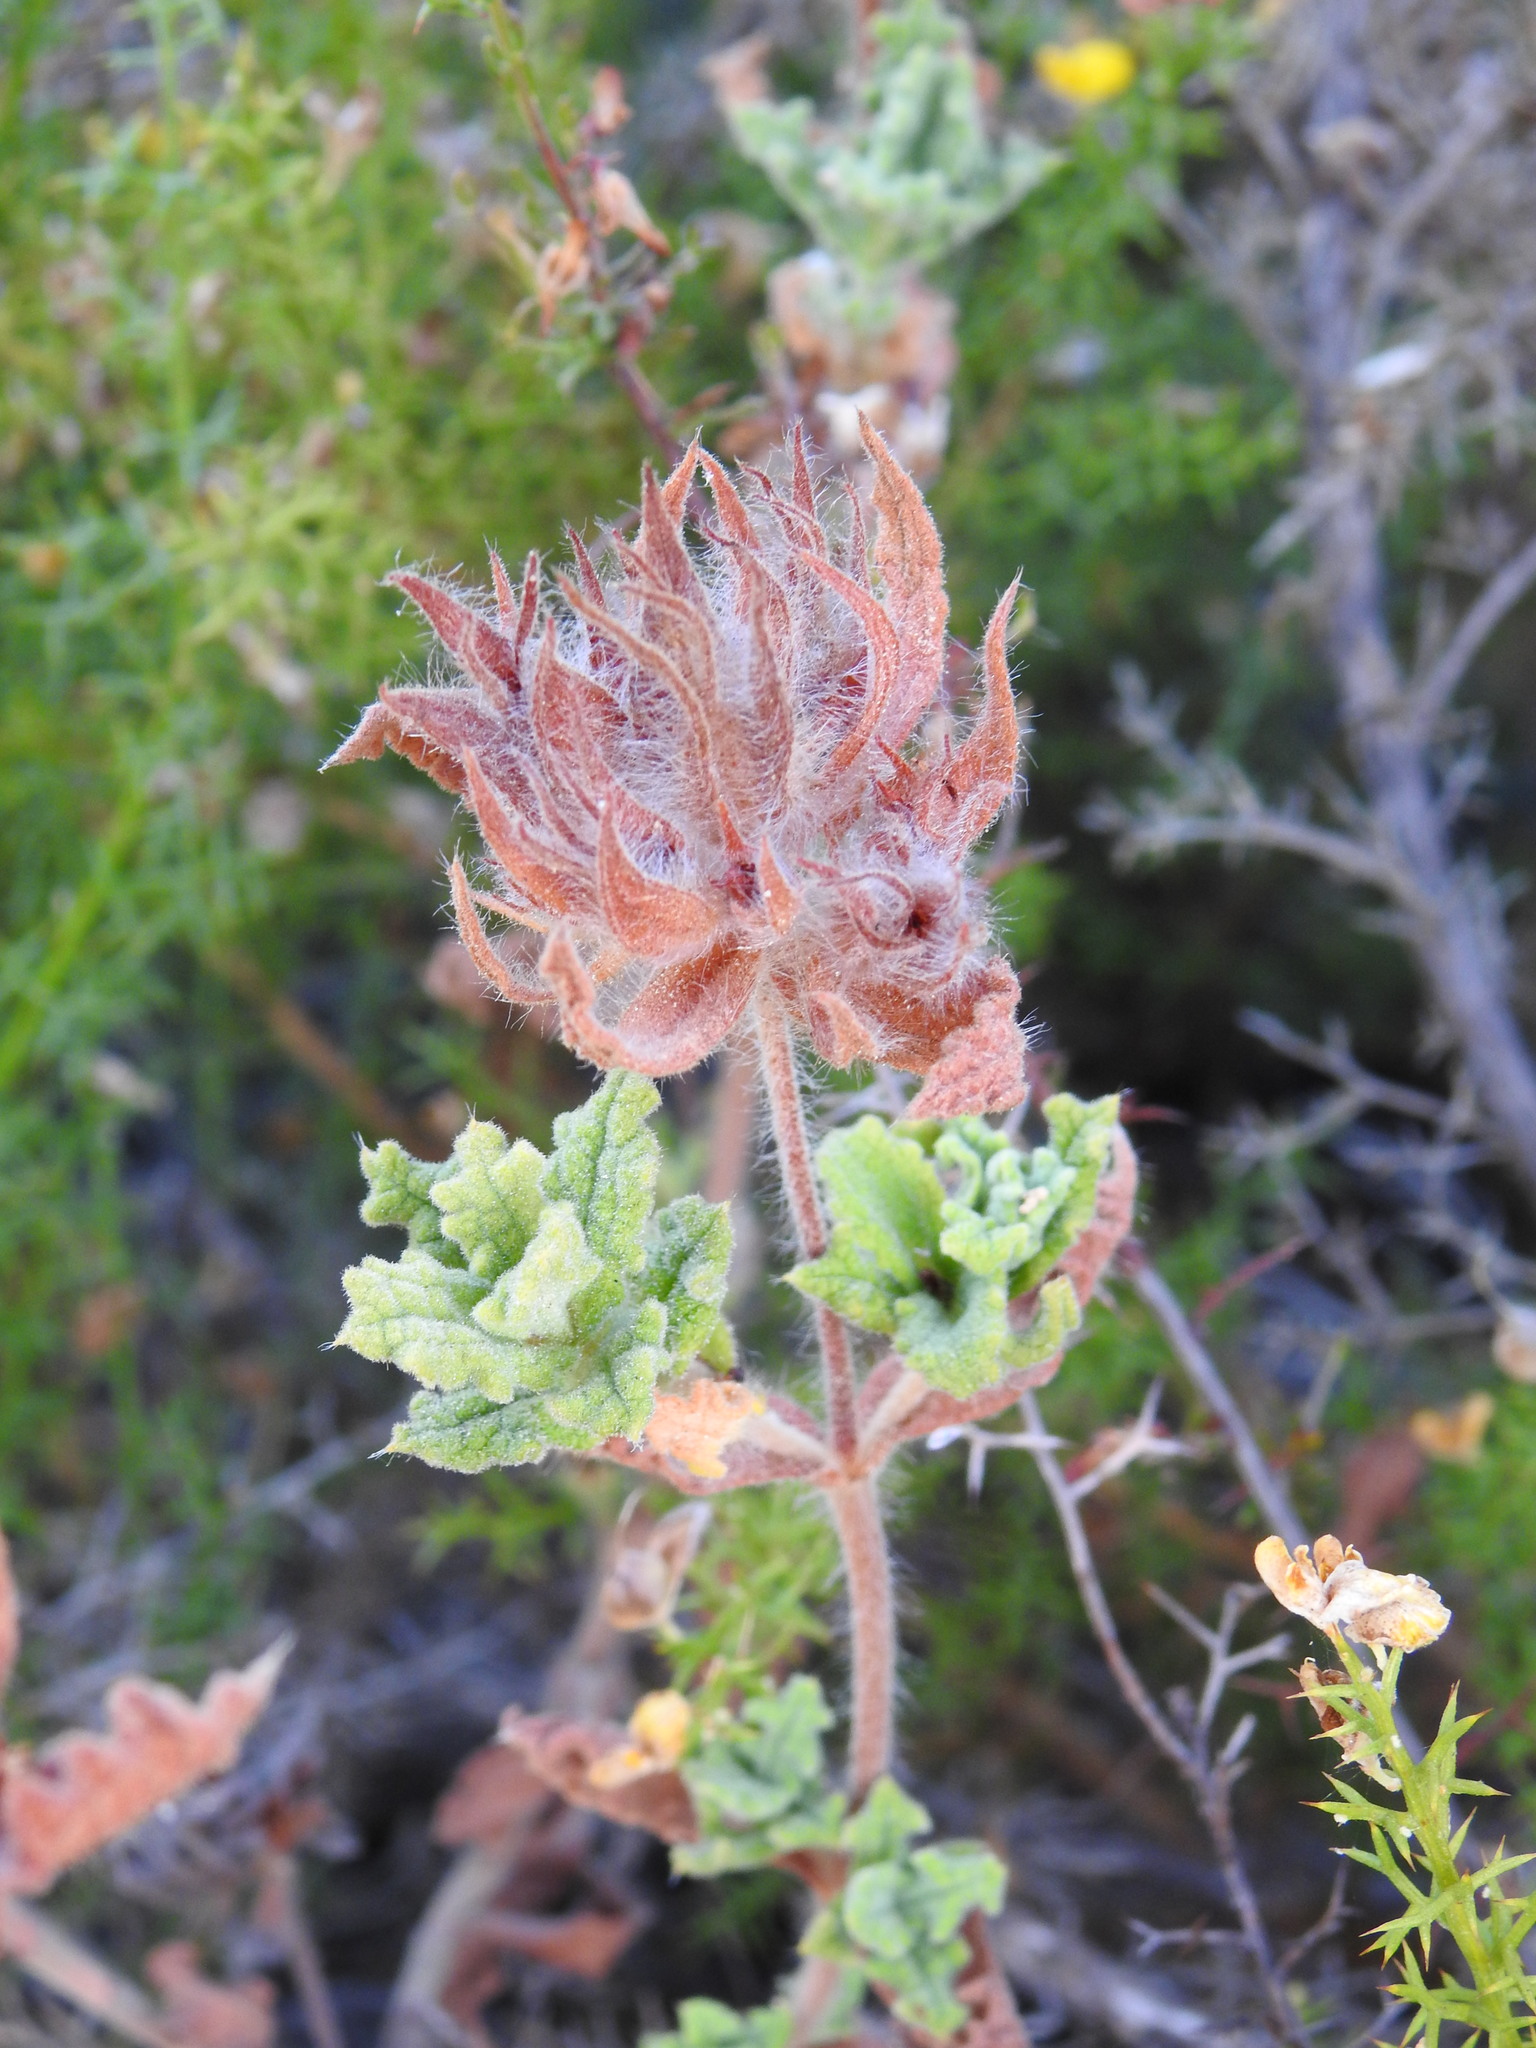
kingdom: Plantae
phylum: Tracheophyta
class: Magnoliopsida
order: Malvales
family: Cistaceae
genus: Cistus
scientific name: Cistus crispus
